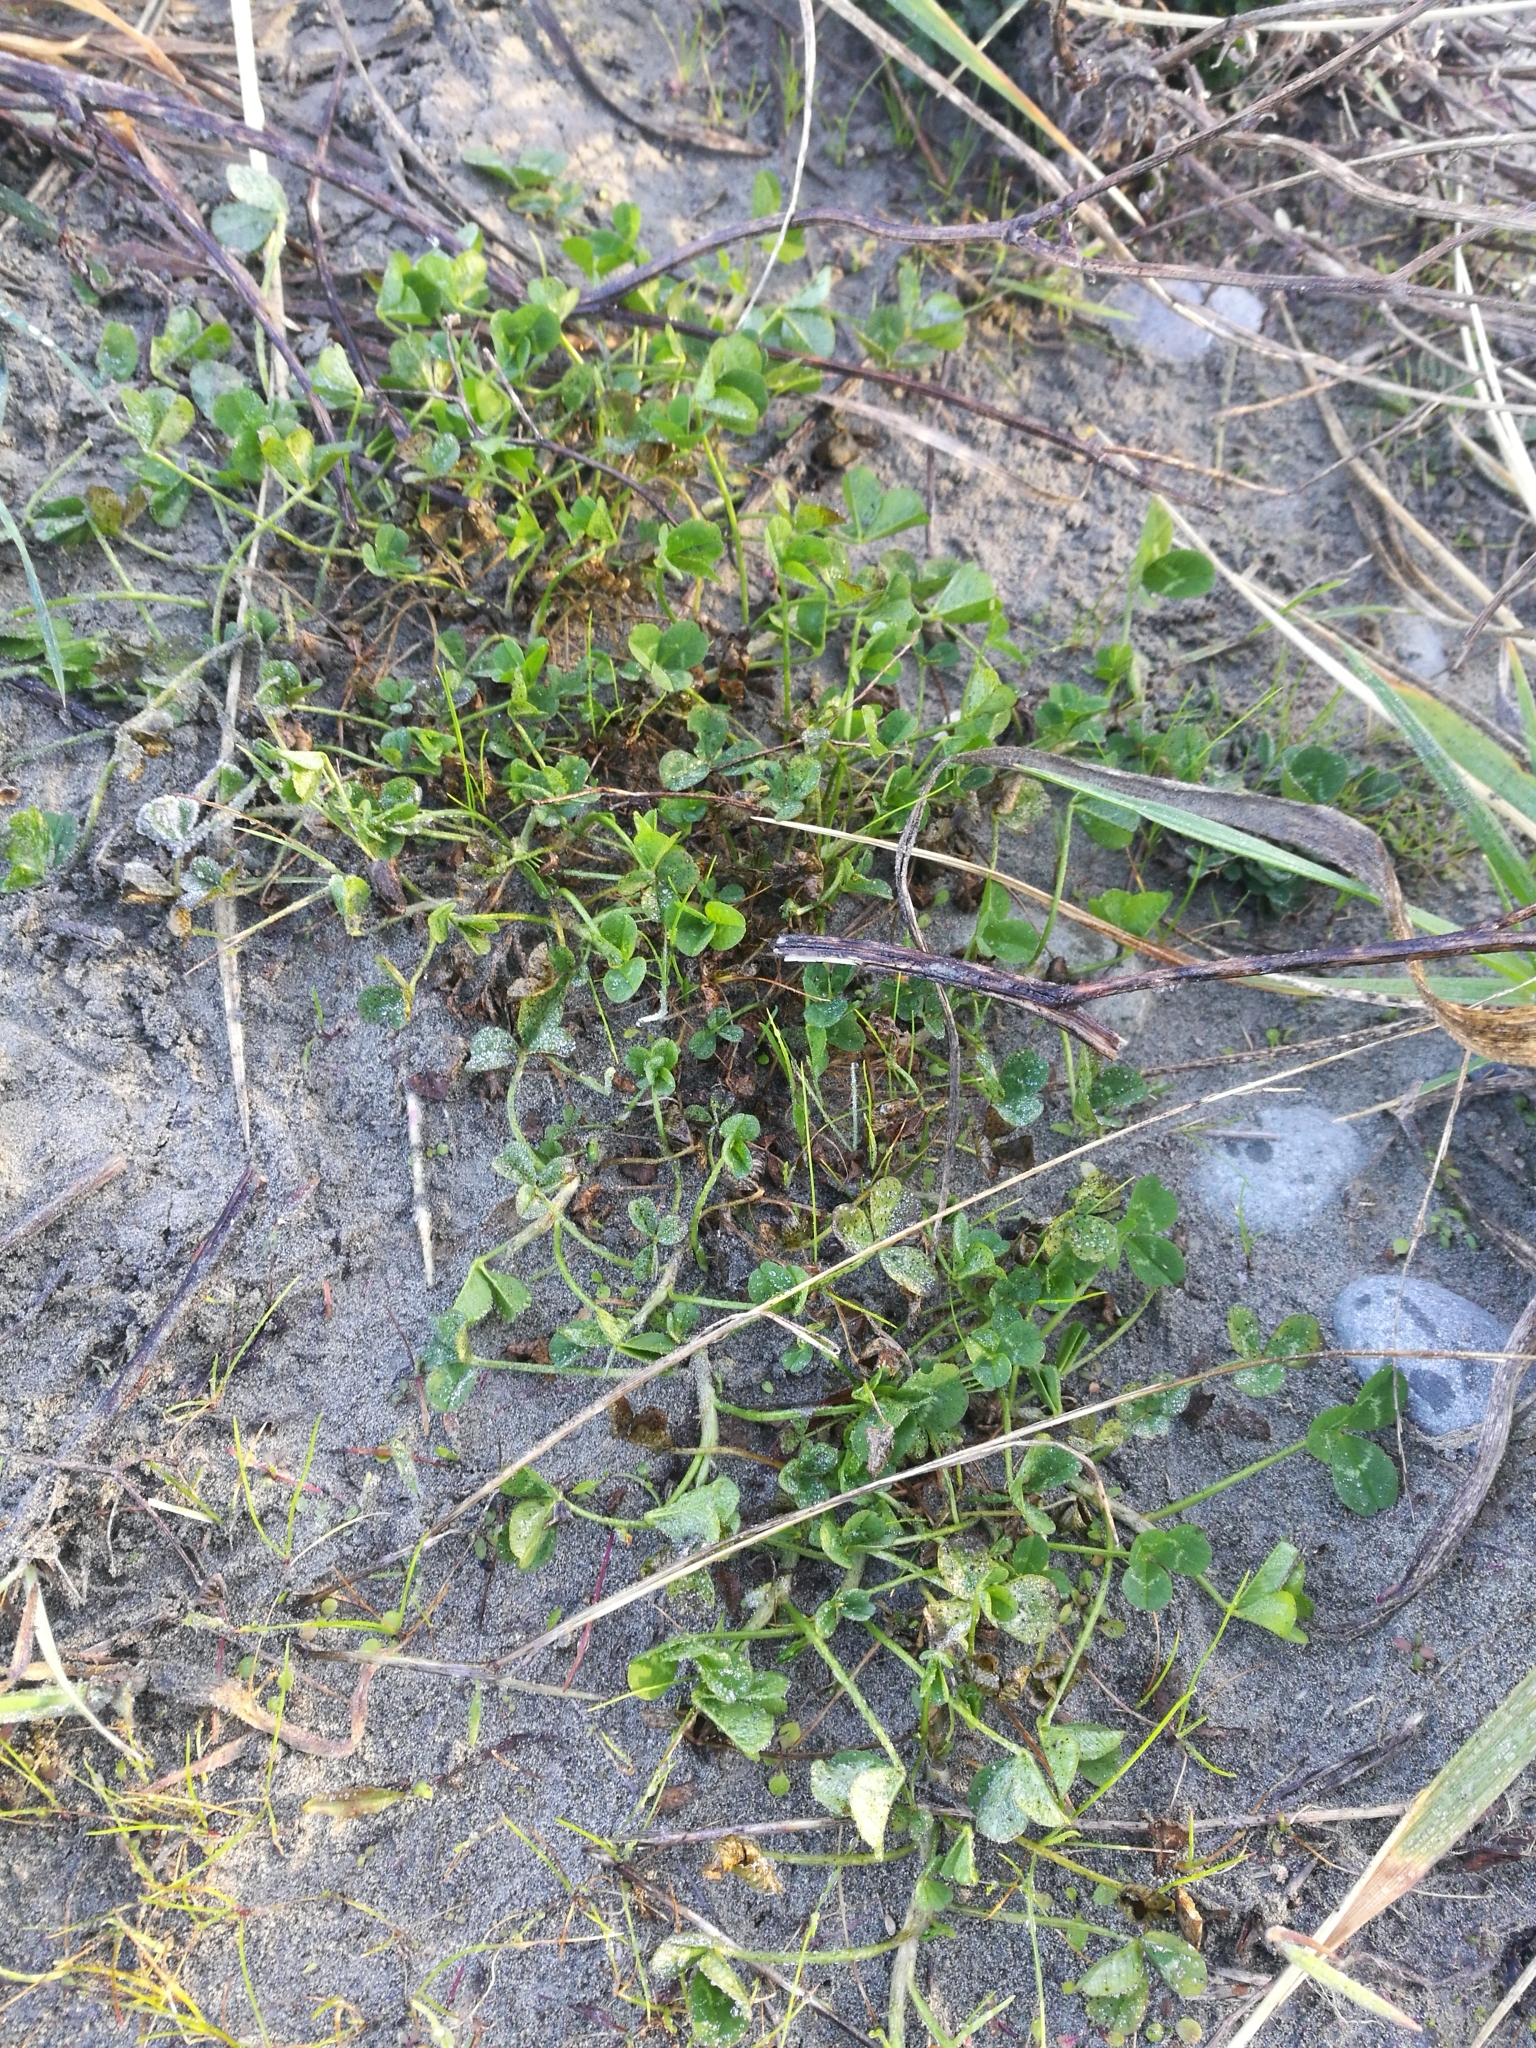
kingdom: Plantae
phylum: Tracheophyta
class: Magnoliopsida
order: Fabales
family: Fabaceae
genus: Trifolium
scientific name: Trifolium repens
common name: White clover
